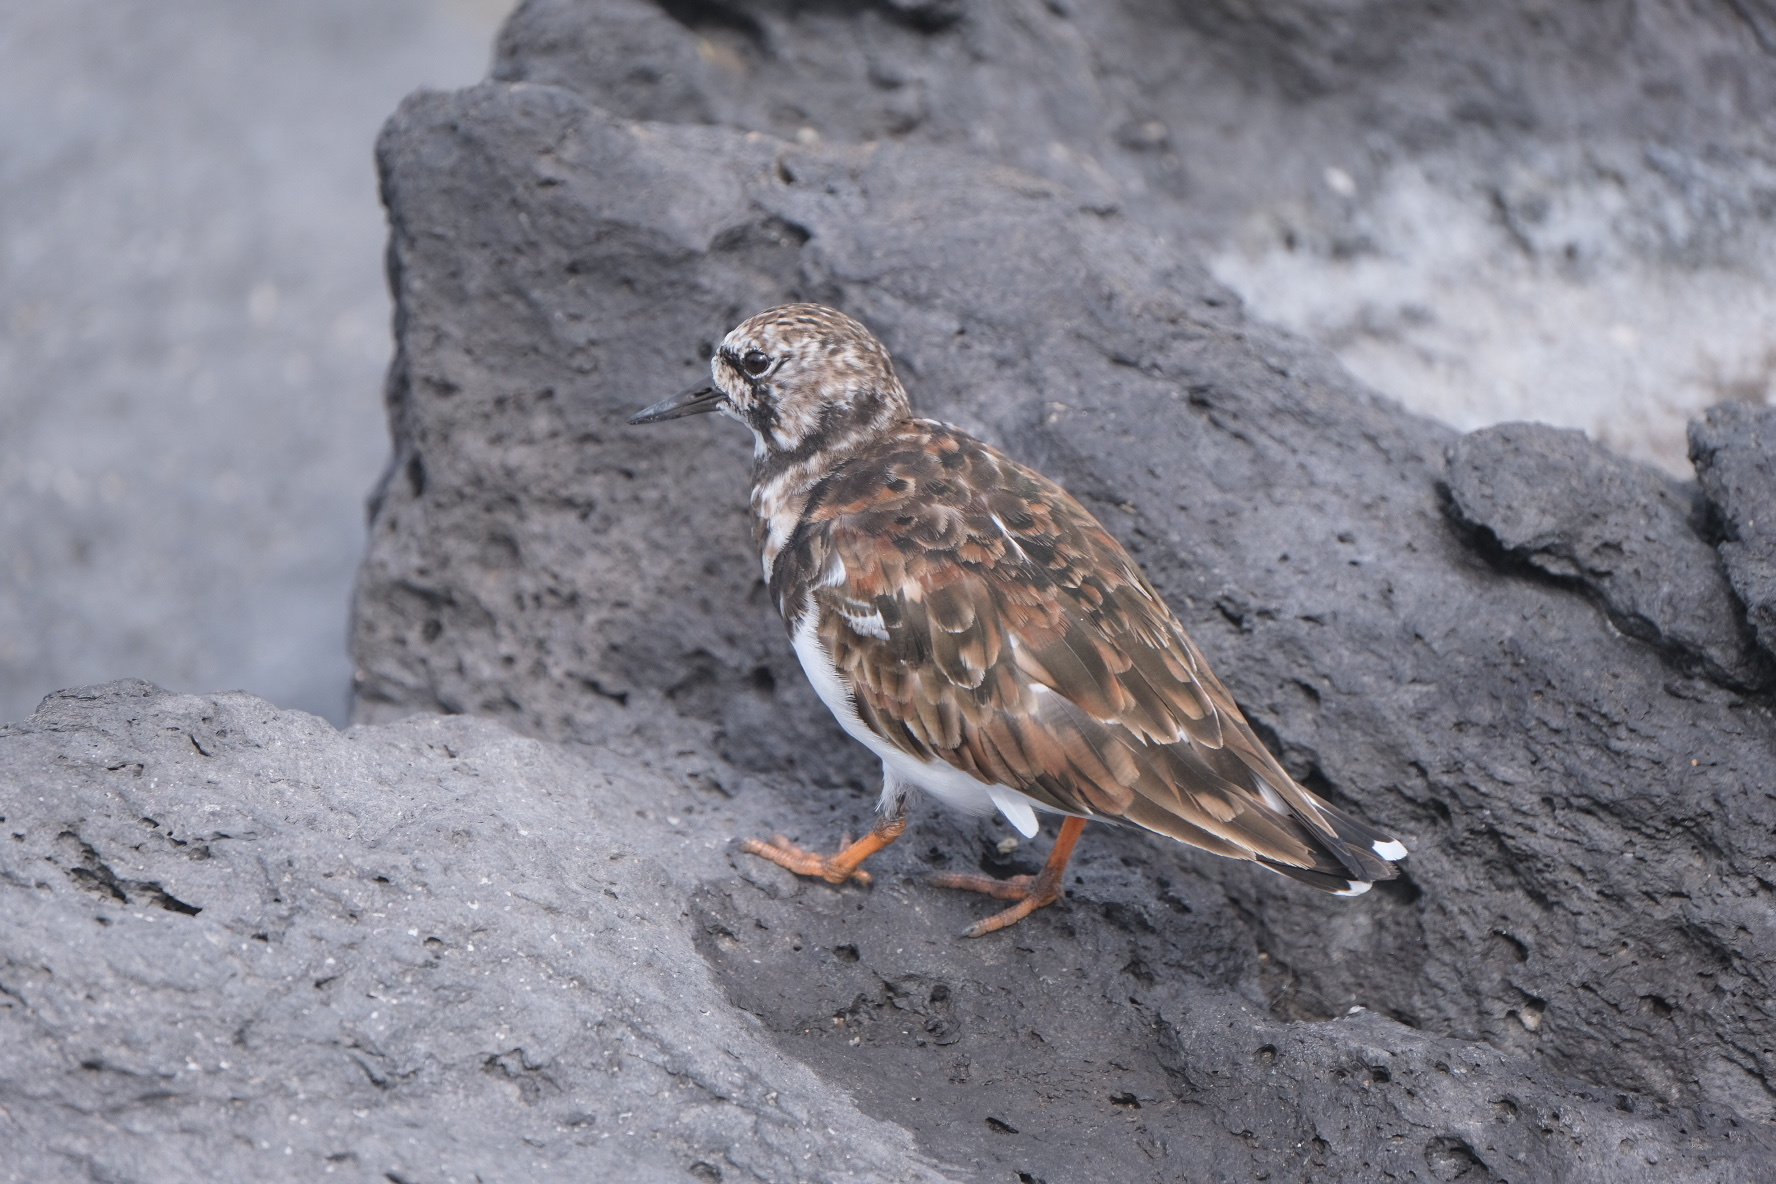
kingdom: Animalia
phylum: Chordata
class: Aves
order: Charadriiformes
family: Scolopacidae
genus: Arenaria
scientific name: Arenaria interpres
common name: Ruddy turnstone
